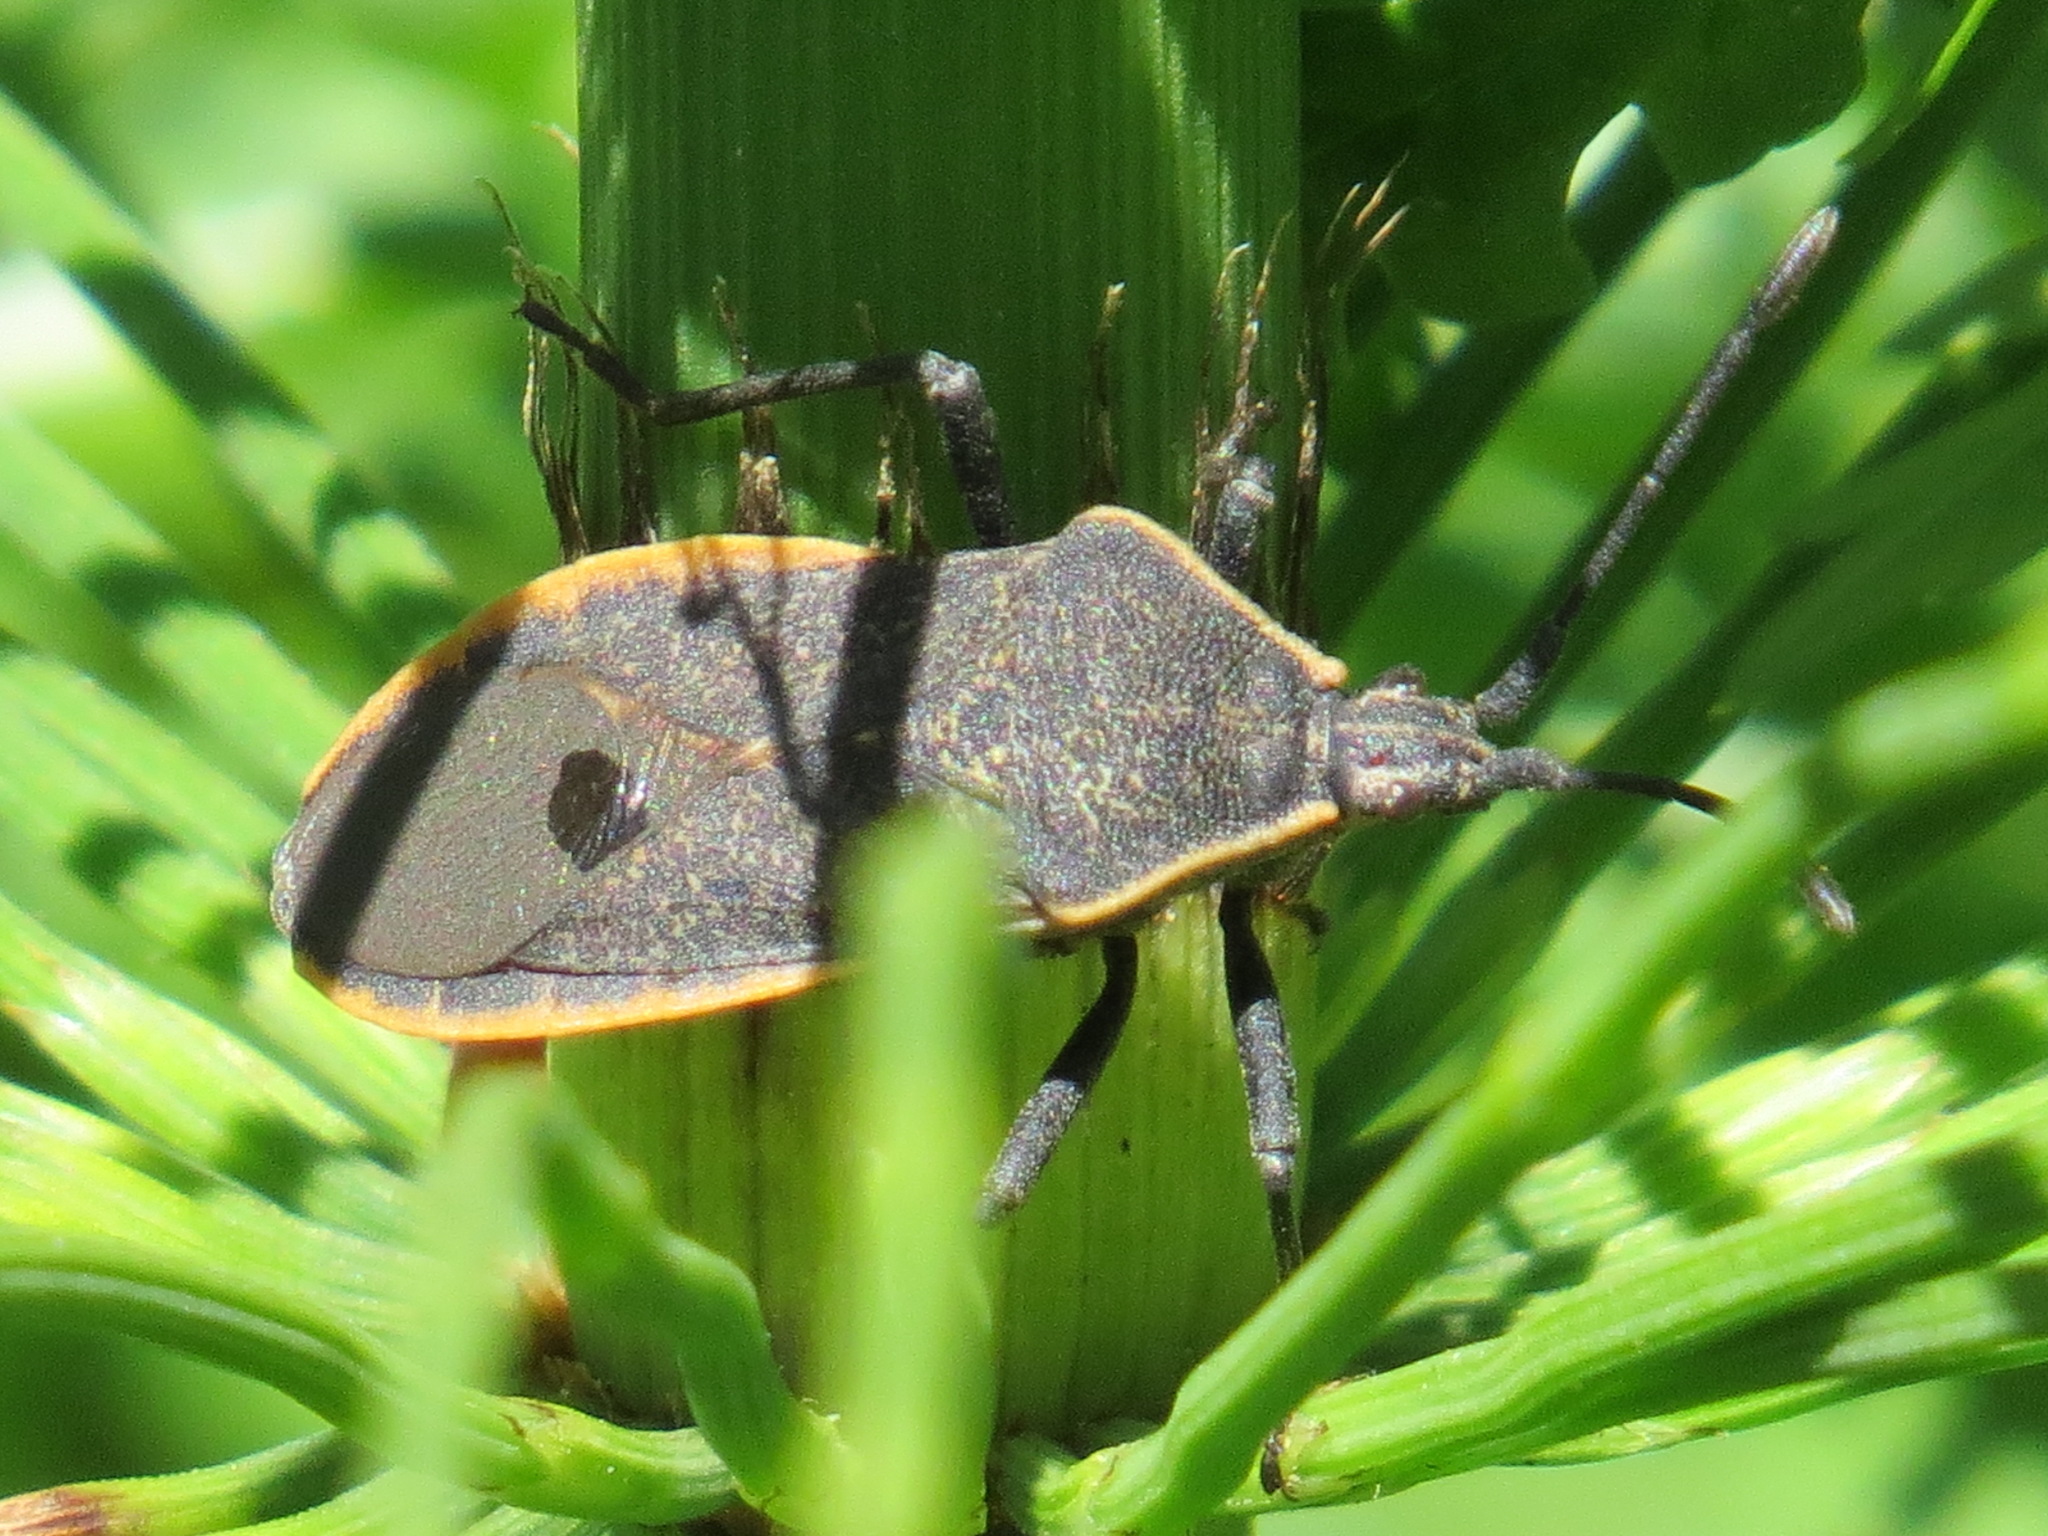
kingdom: Animalia
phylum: Arthropoda
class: Insecta
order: Hemiptera
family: Coreidae
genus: Anasa
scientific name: Anasa tristis
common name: Squash bug
